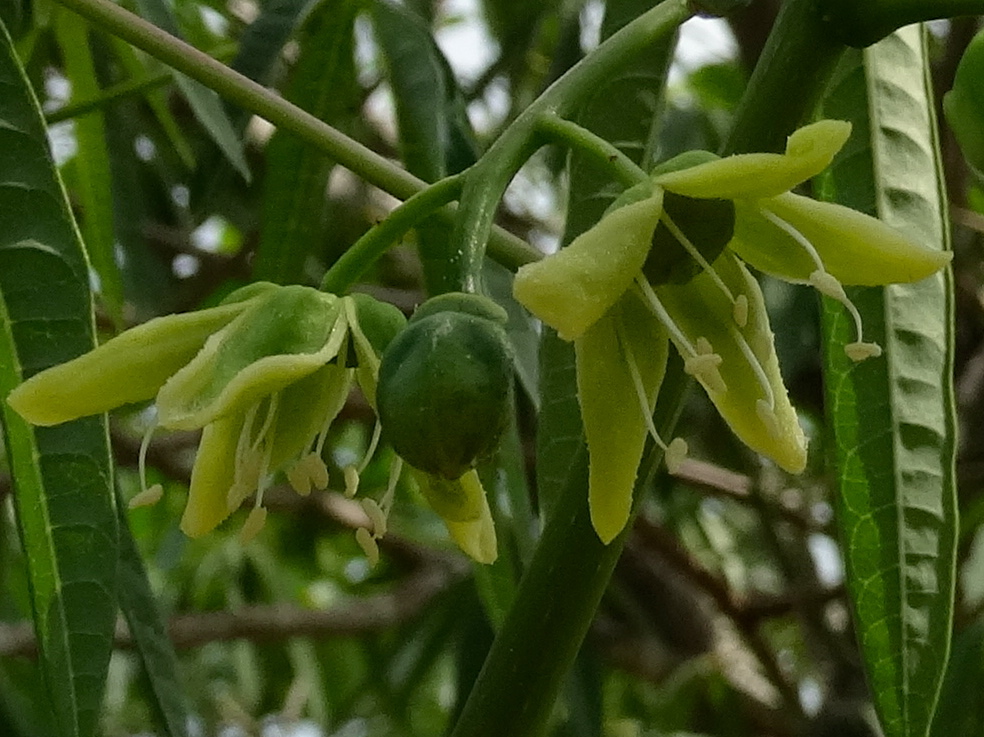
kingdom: Plantae
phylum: Tracheophyta
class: Magnoliopsida
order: Malpighiales
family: Euphorbiaceae
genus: Manihot
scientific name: Manihot angustiloba
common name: Desert mountain manihot
